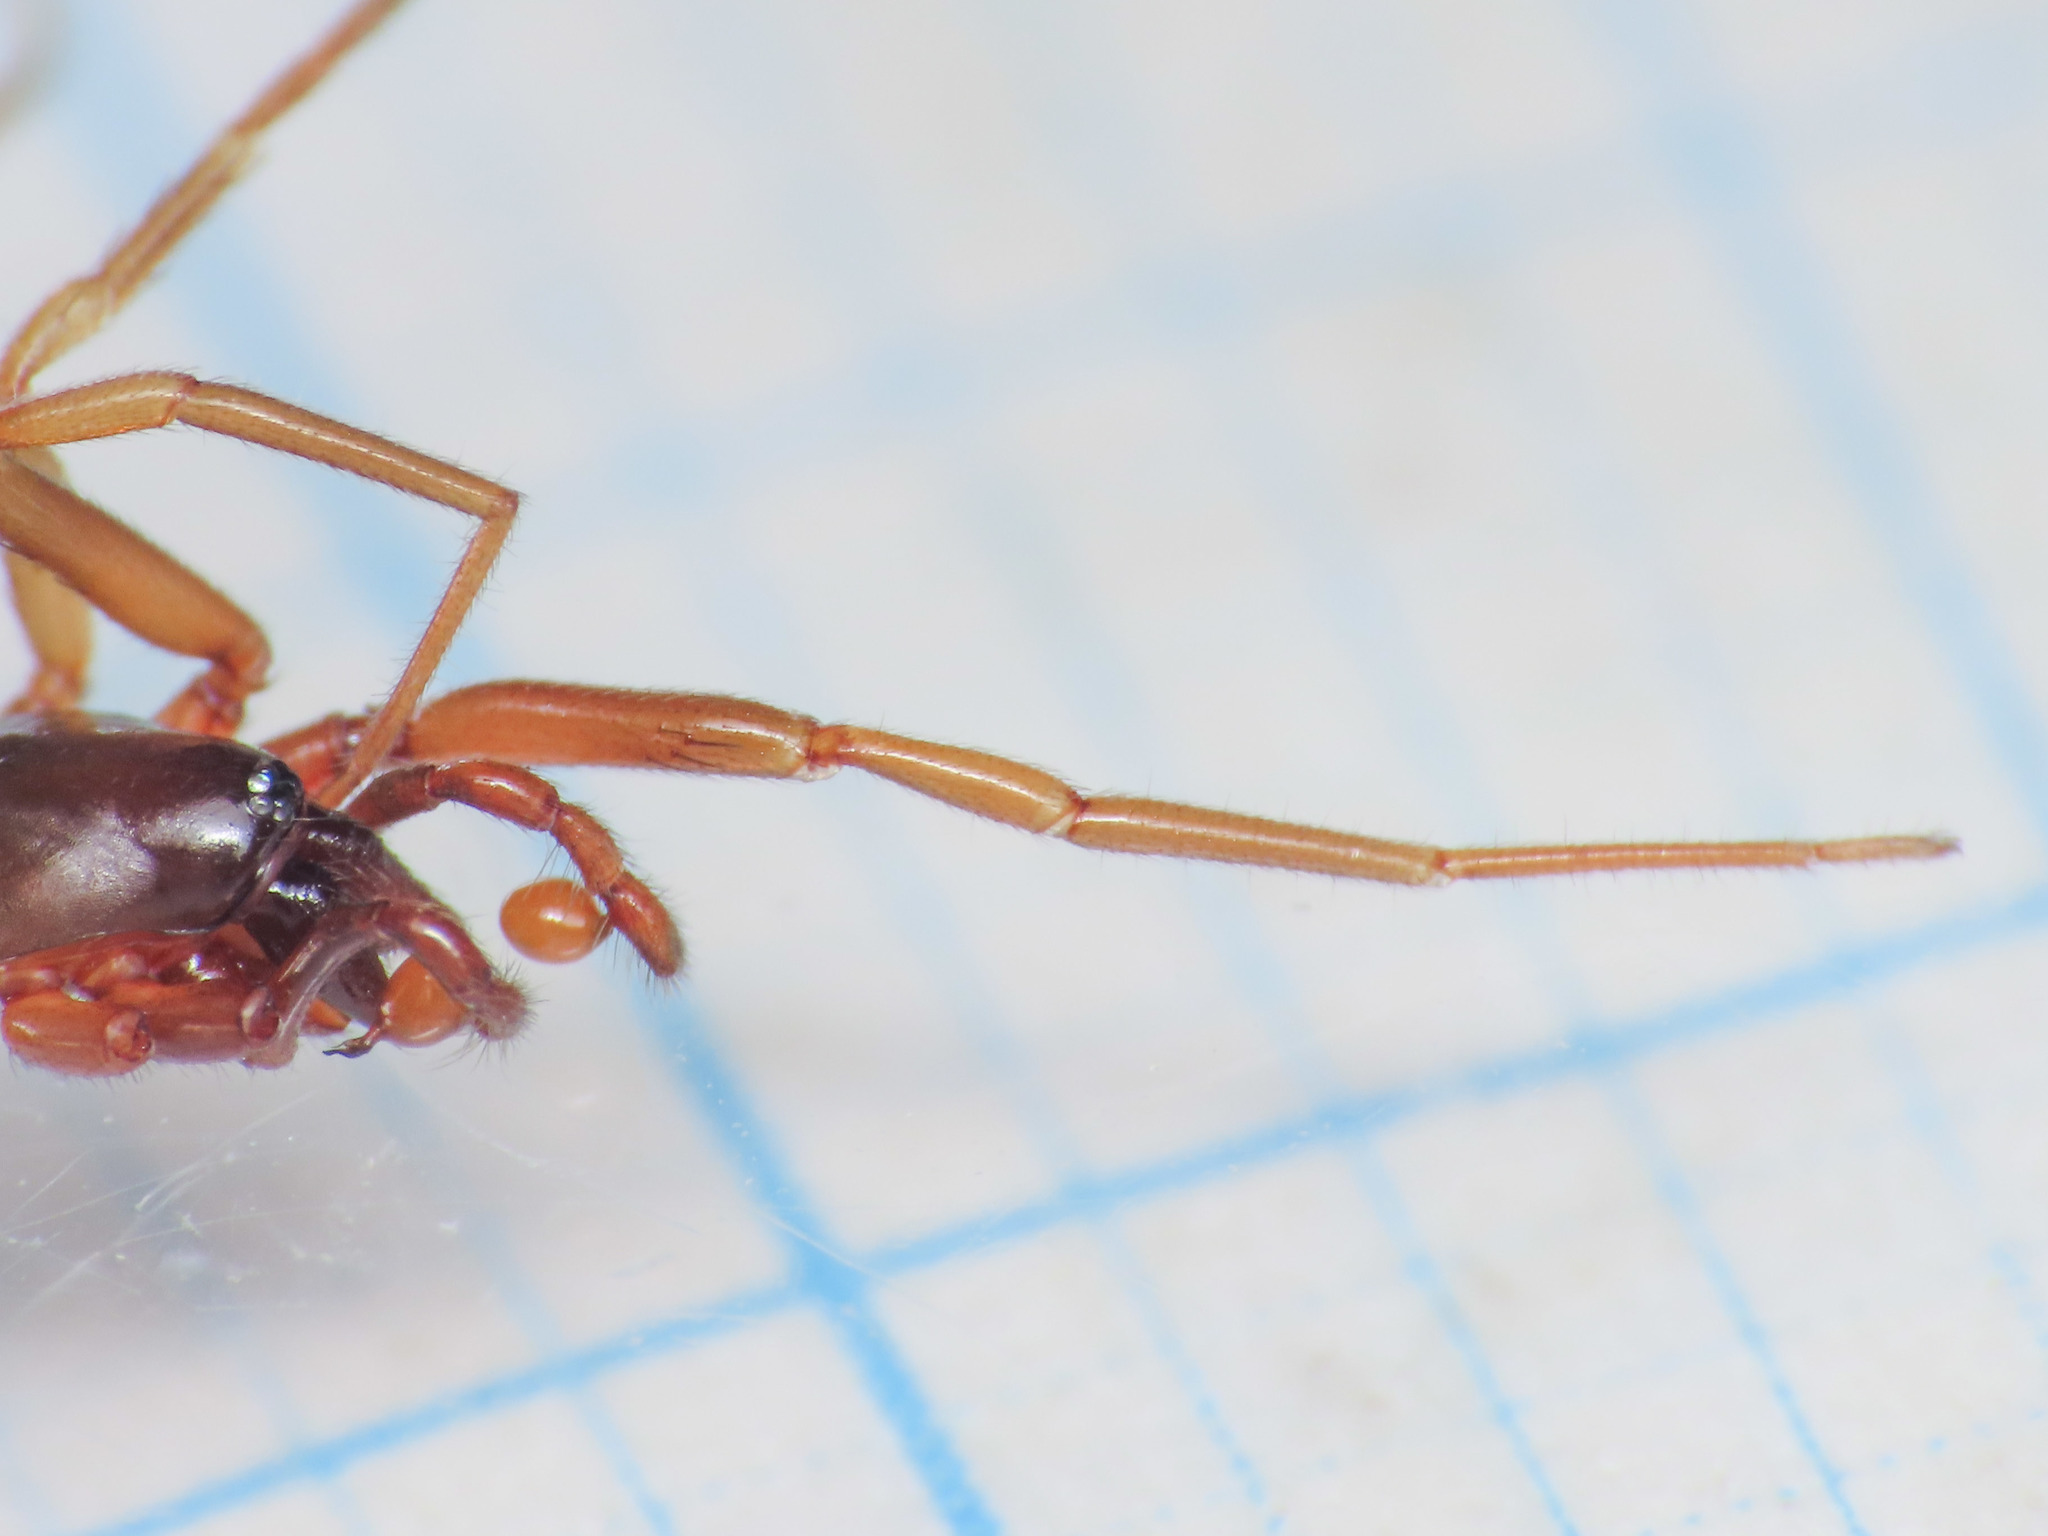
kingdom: Animalia
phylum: Arthropoda
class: Arachnida
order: Araneae
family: Dysderidae
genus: Harpactea
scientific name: Harpactea longobarda
